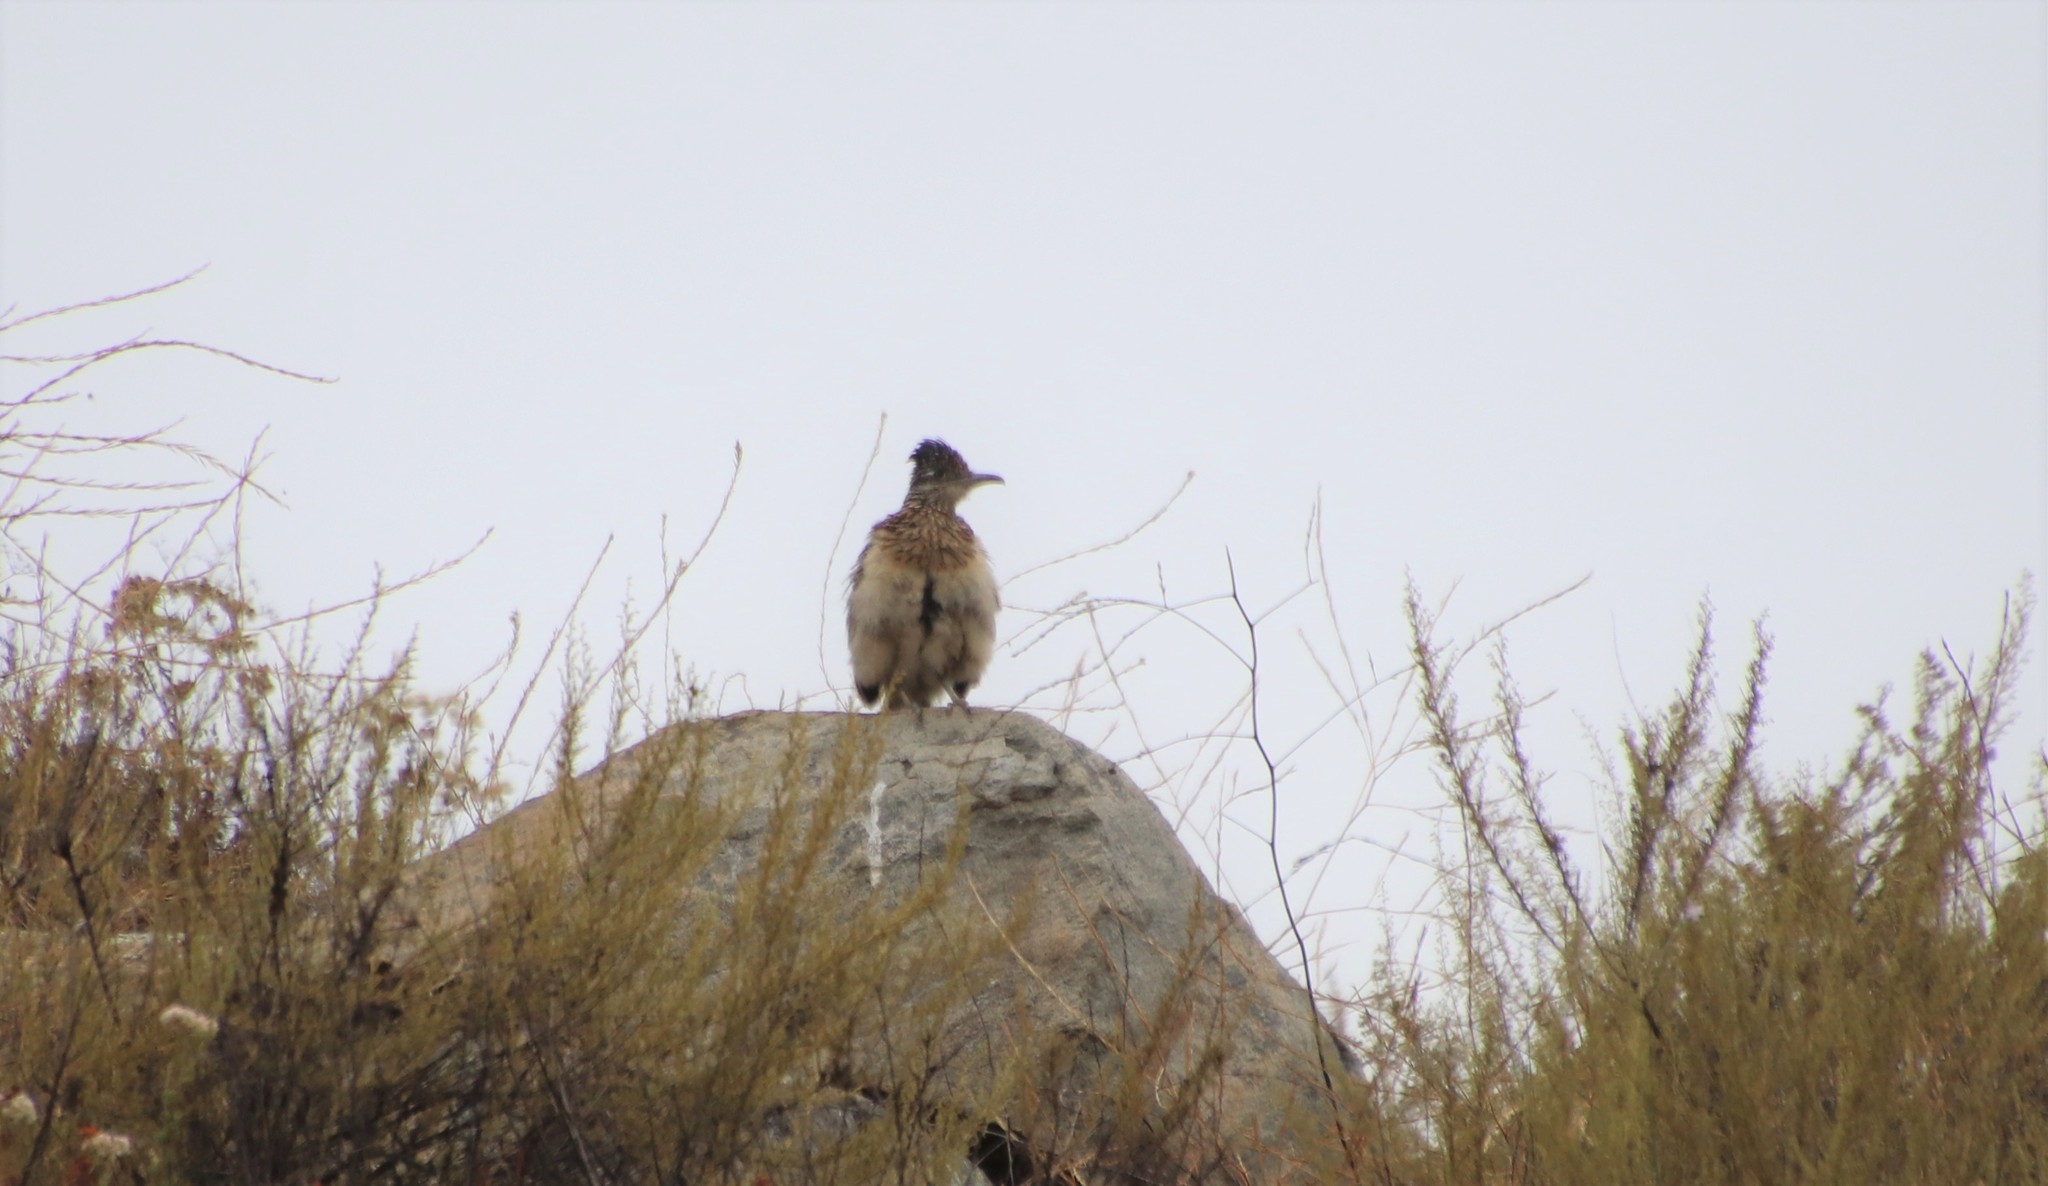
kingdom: Animalia
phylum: Chordata
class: Aves
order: Cuculiformes
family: Cuculidae
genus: Geococcyx
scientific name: Geococcyx californianus
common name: Greater roadrunner
